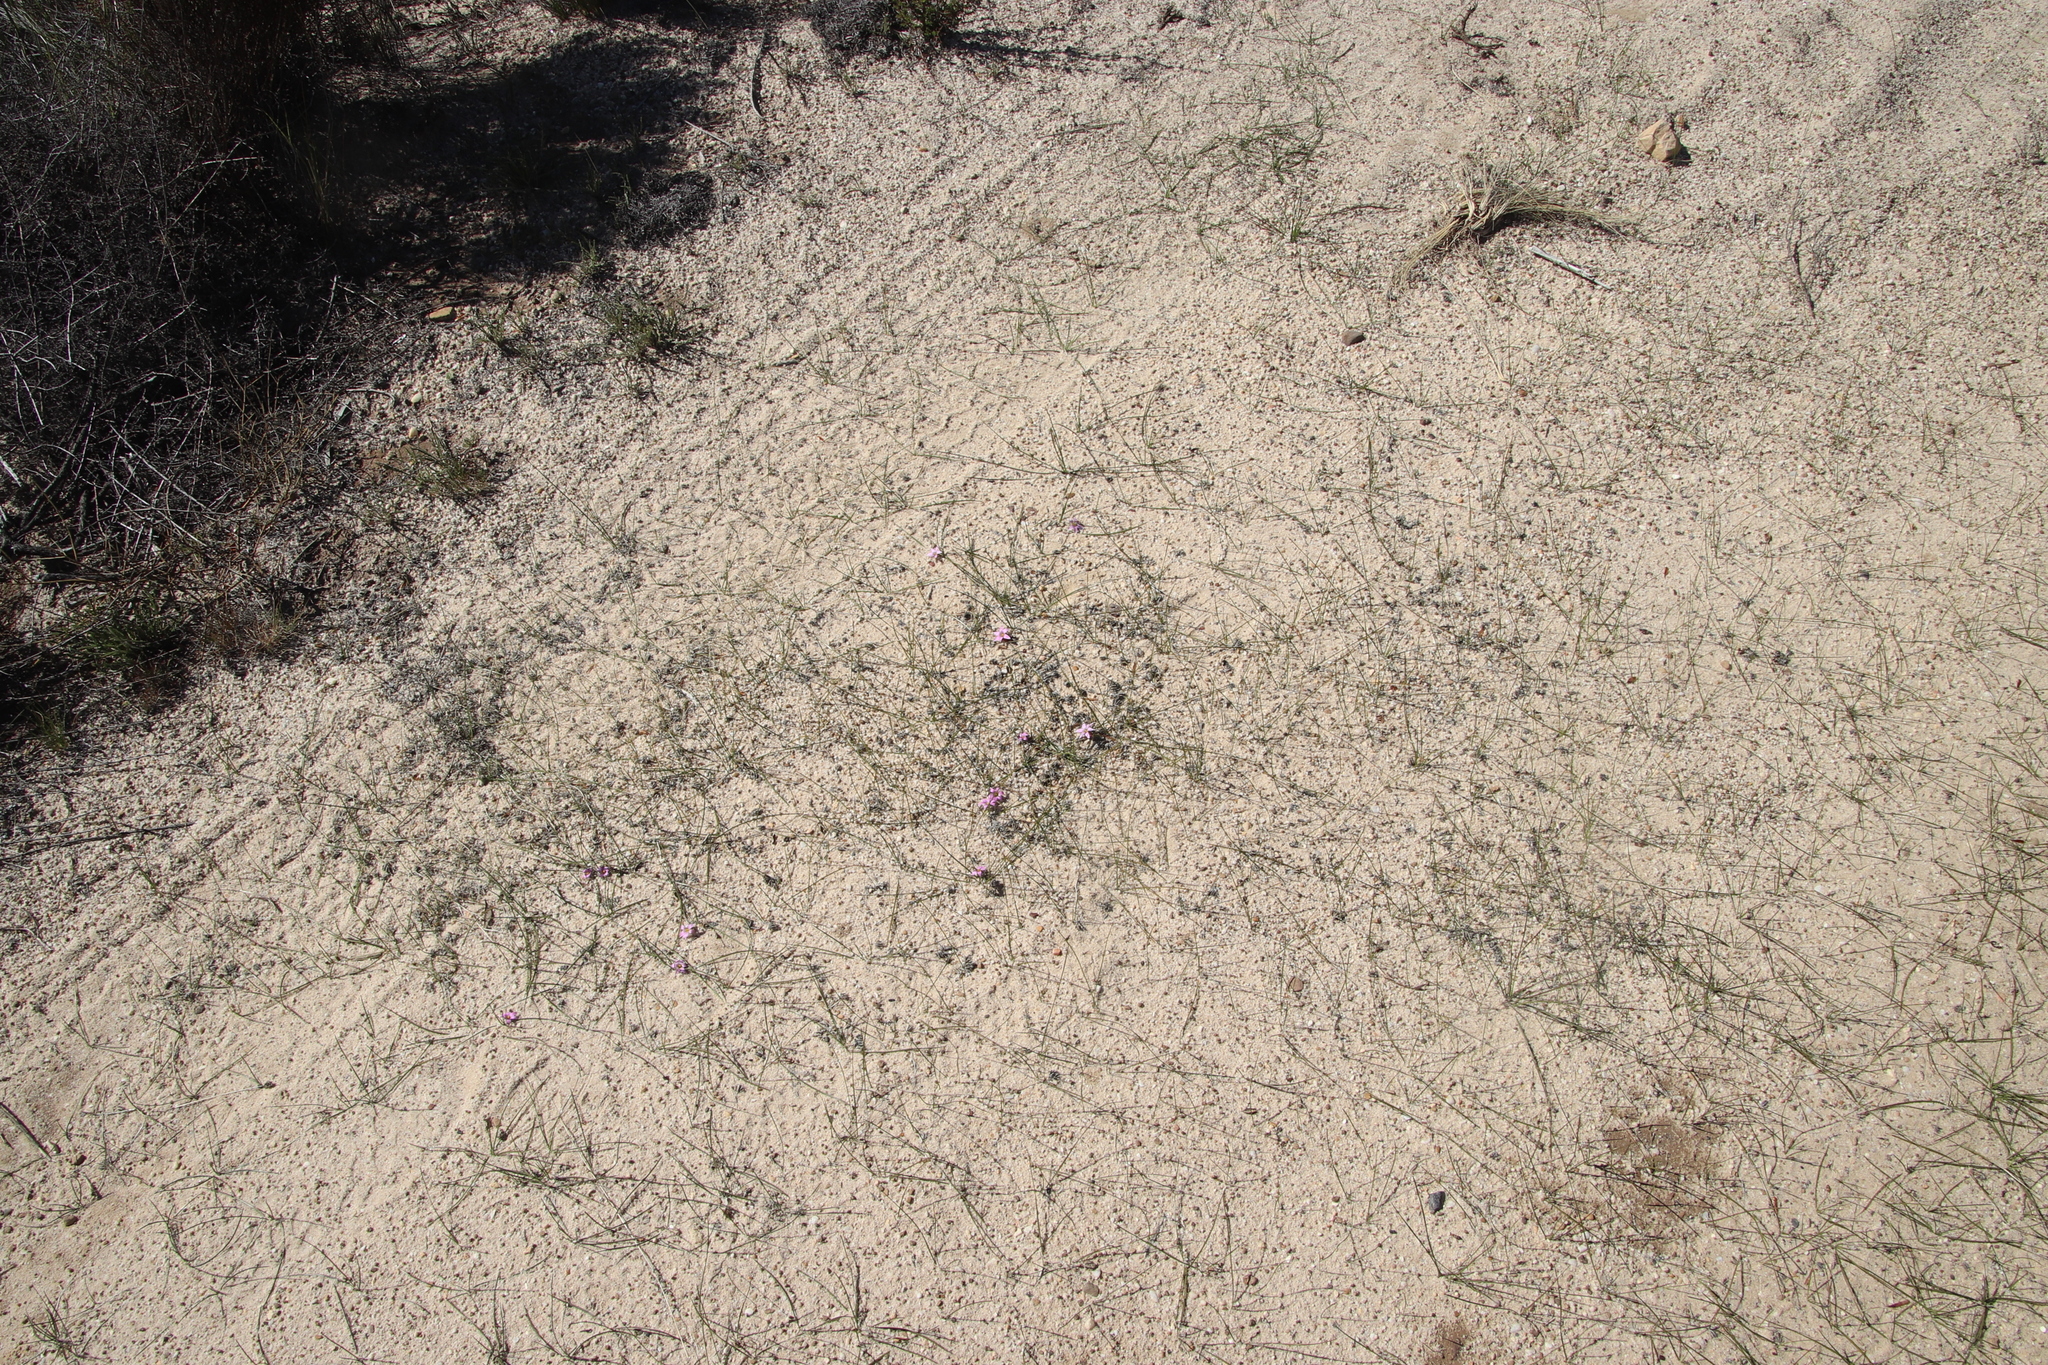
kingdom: Plantae
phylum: Tracheophyta
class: Liliopsida
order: Asparagales
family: Iridaceae
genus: Romulea
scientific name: Romulea rosea
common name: Oniongrass
